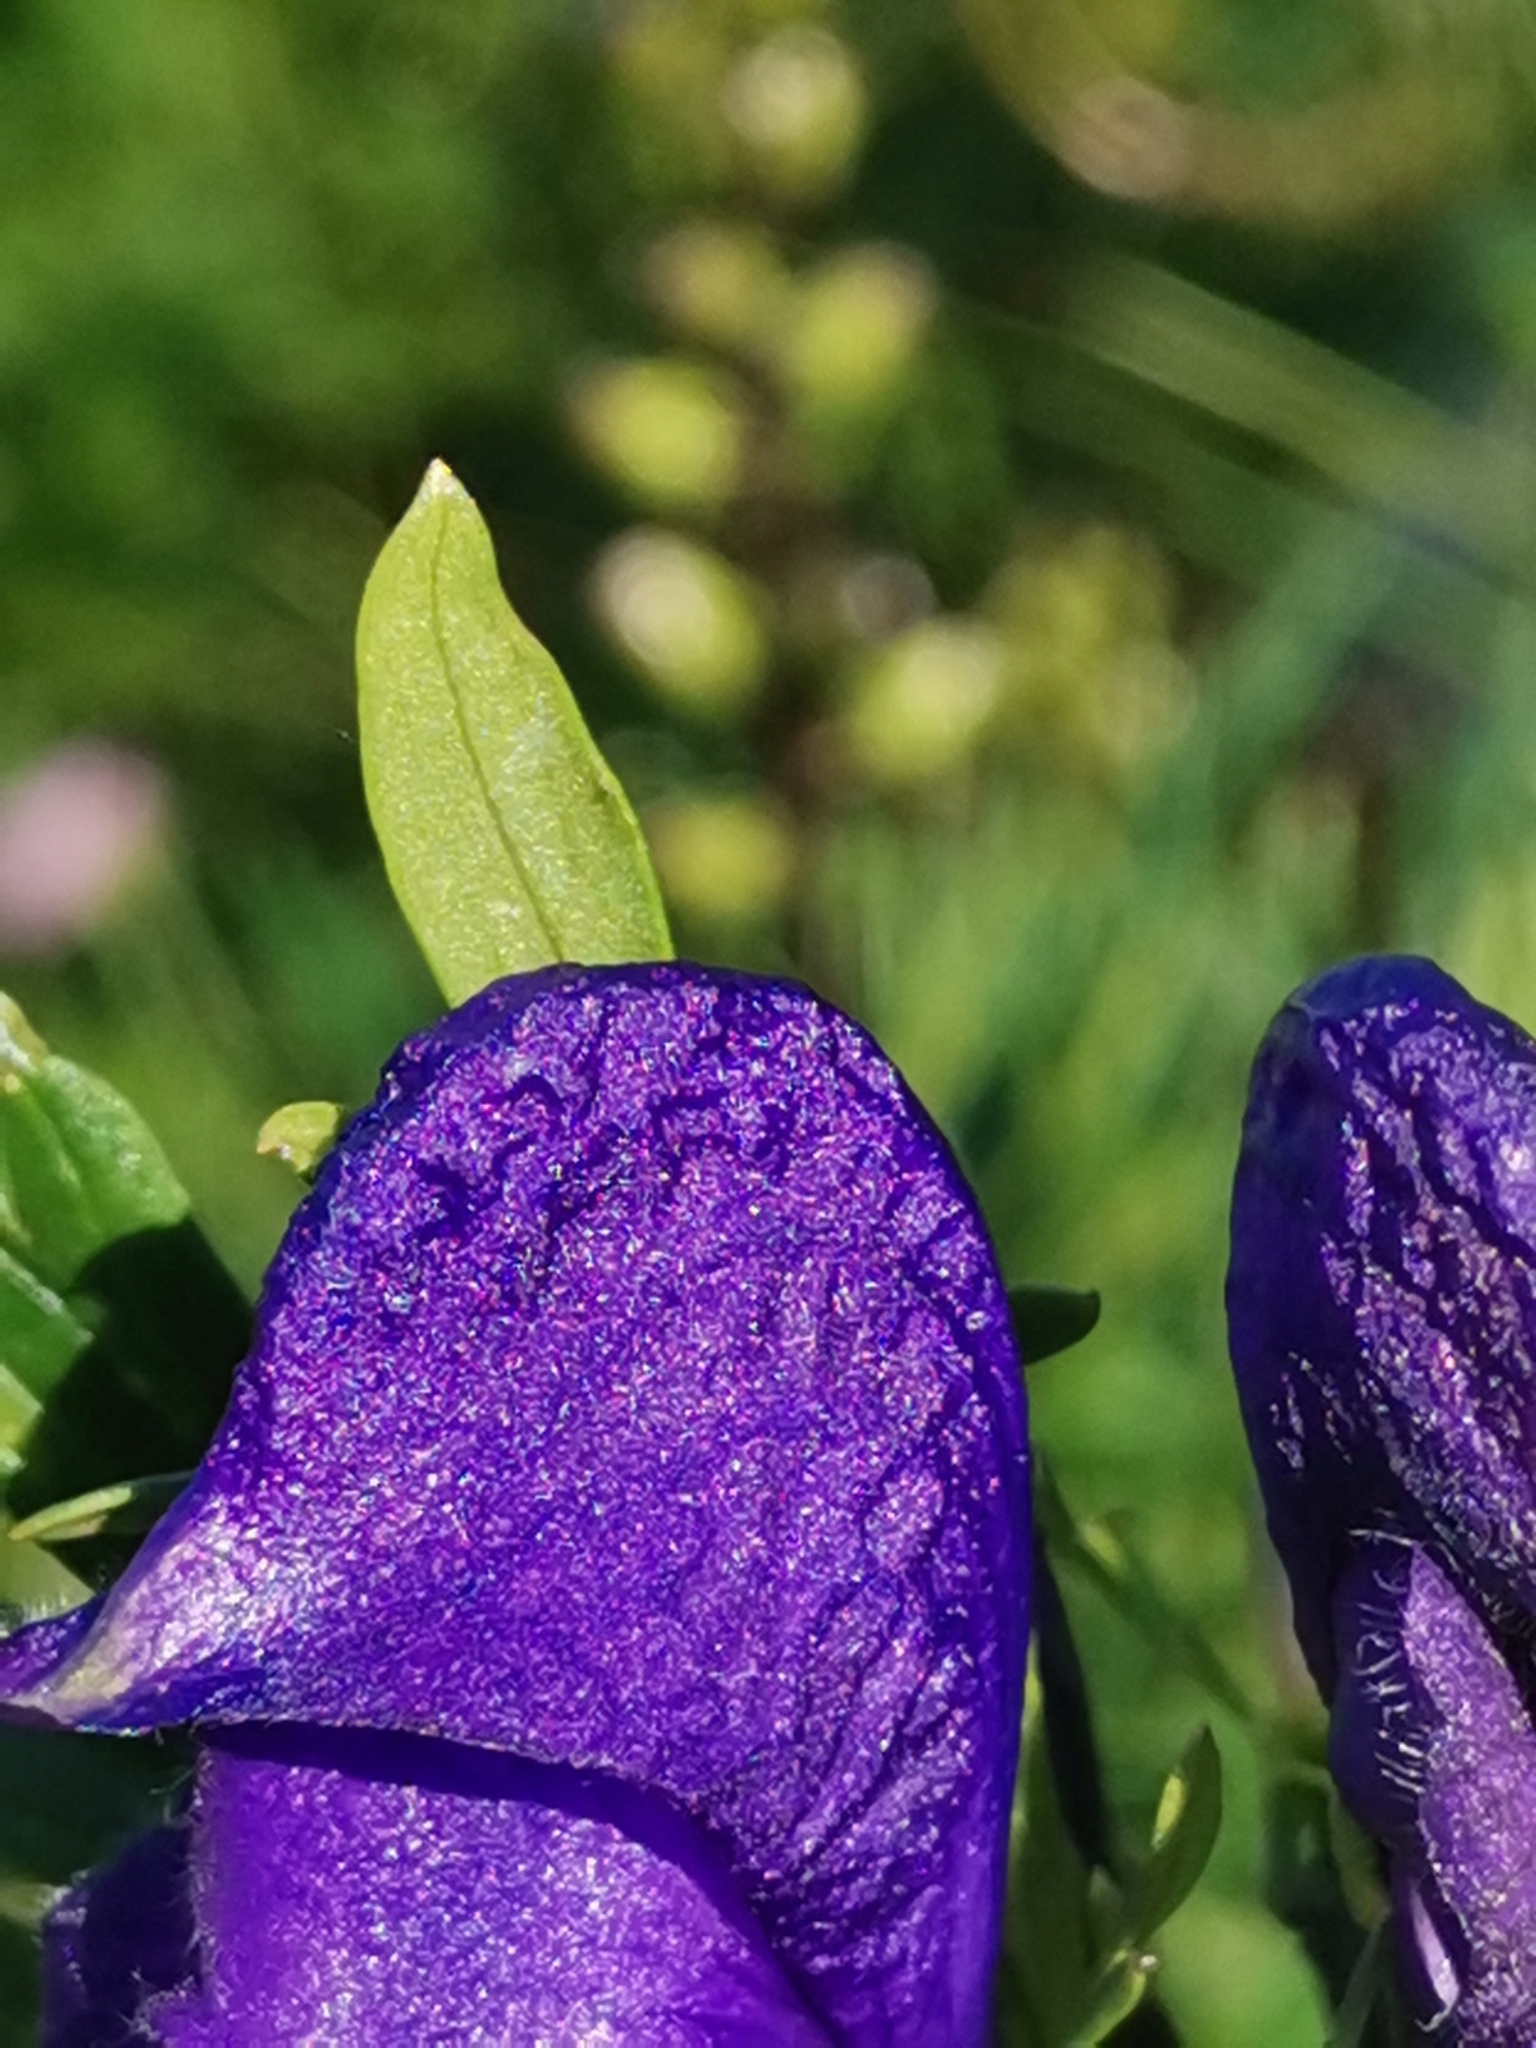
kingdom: Plantae
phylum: Tracheophyta
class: Magnoliopsida
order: Ranunculales
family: Ranunculaceae
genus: Aconitum
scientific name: Aconitum tauricum
